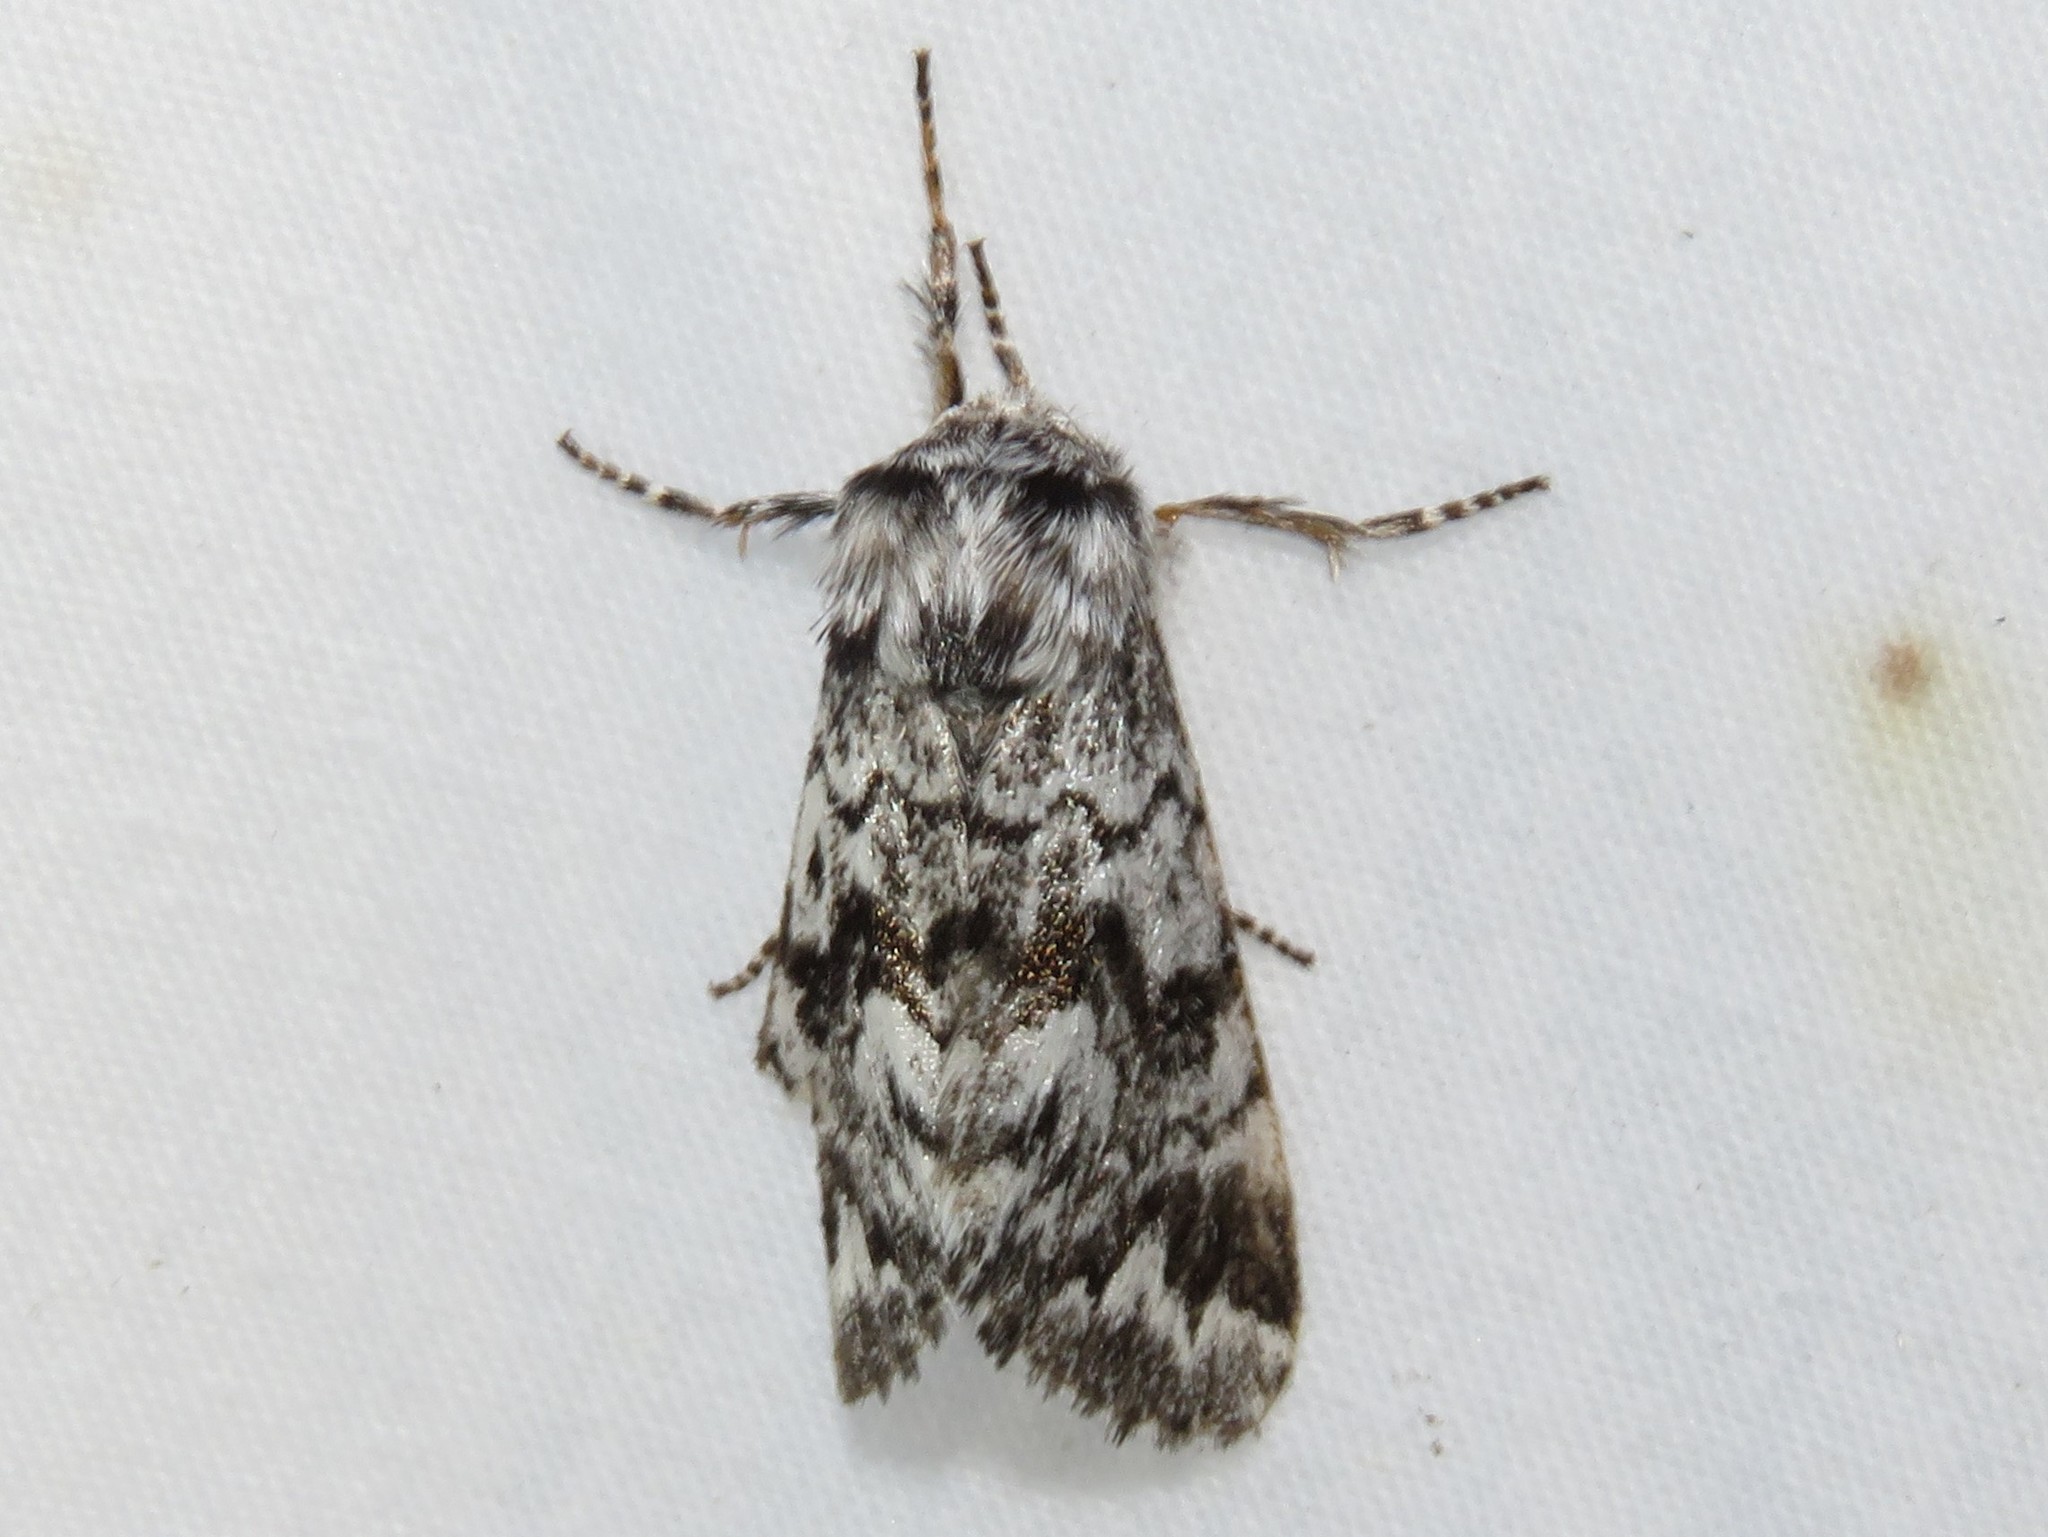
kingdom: Animalia
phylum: Arthropoda
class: Insecta
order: Lepidoptera
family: Noctuidae
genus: Panthea
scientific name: Panthea acronyctoides
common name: Black zigzag moth
